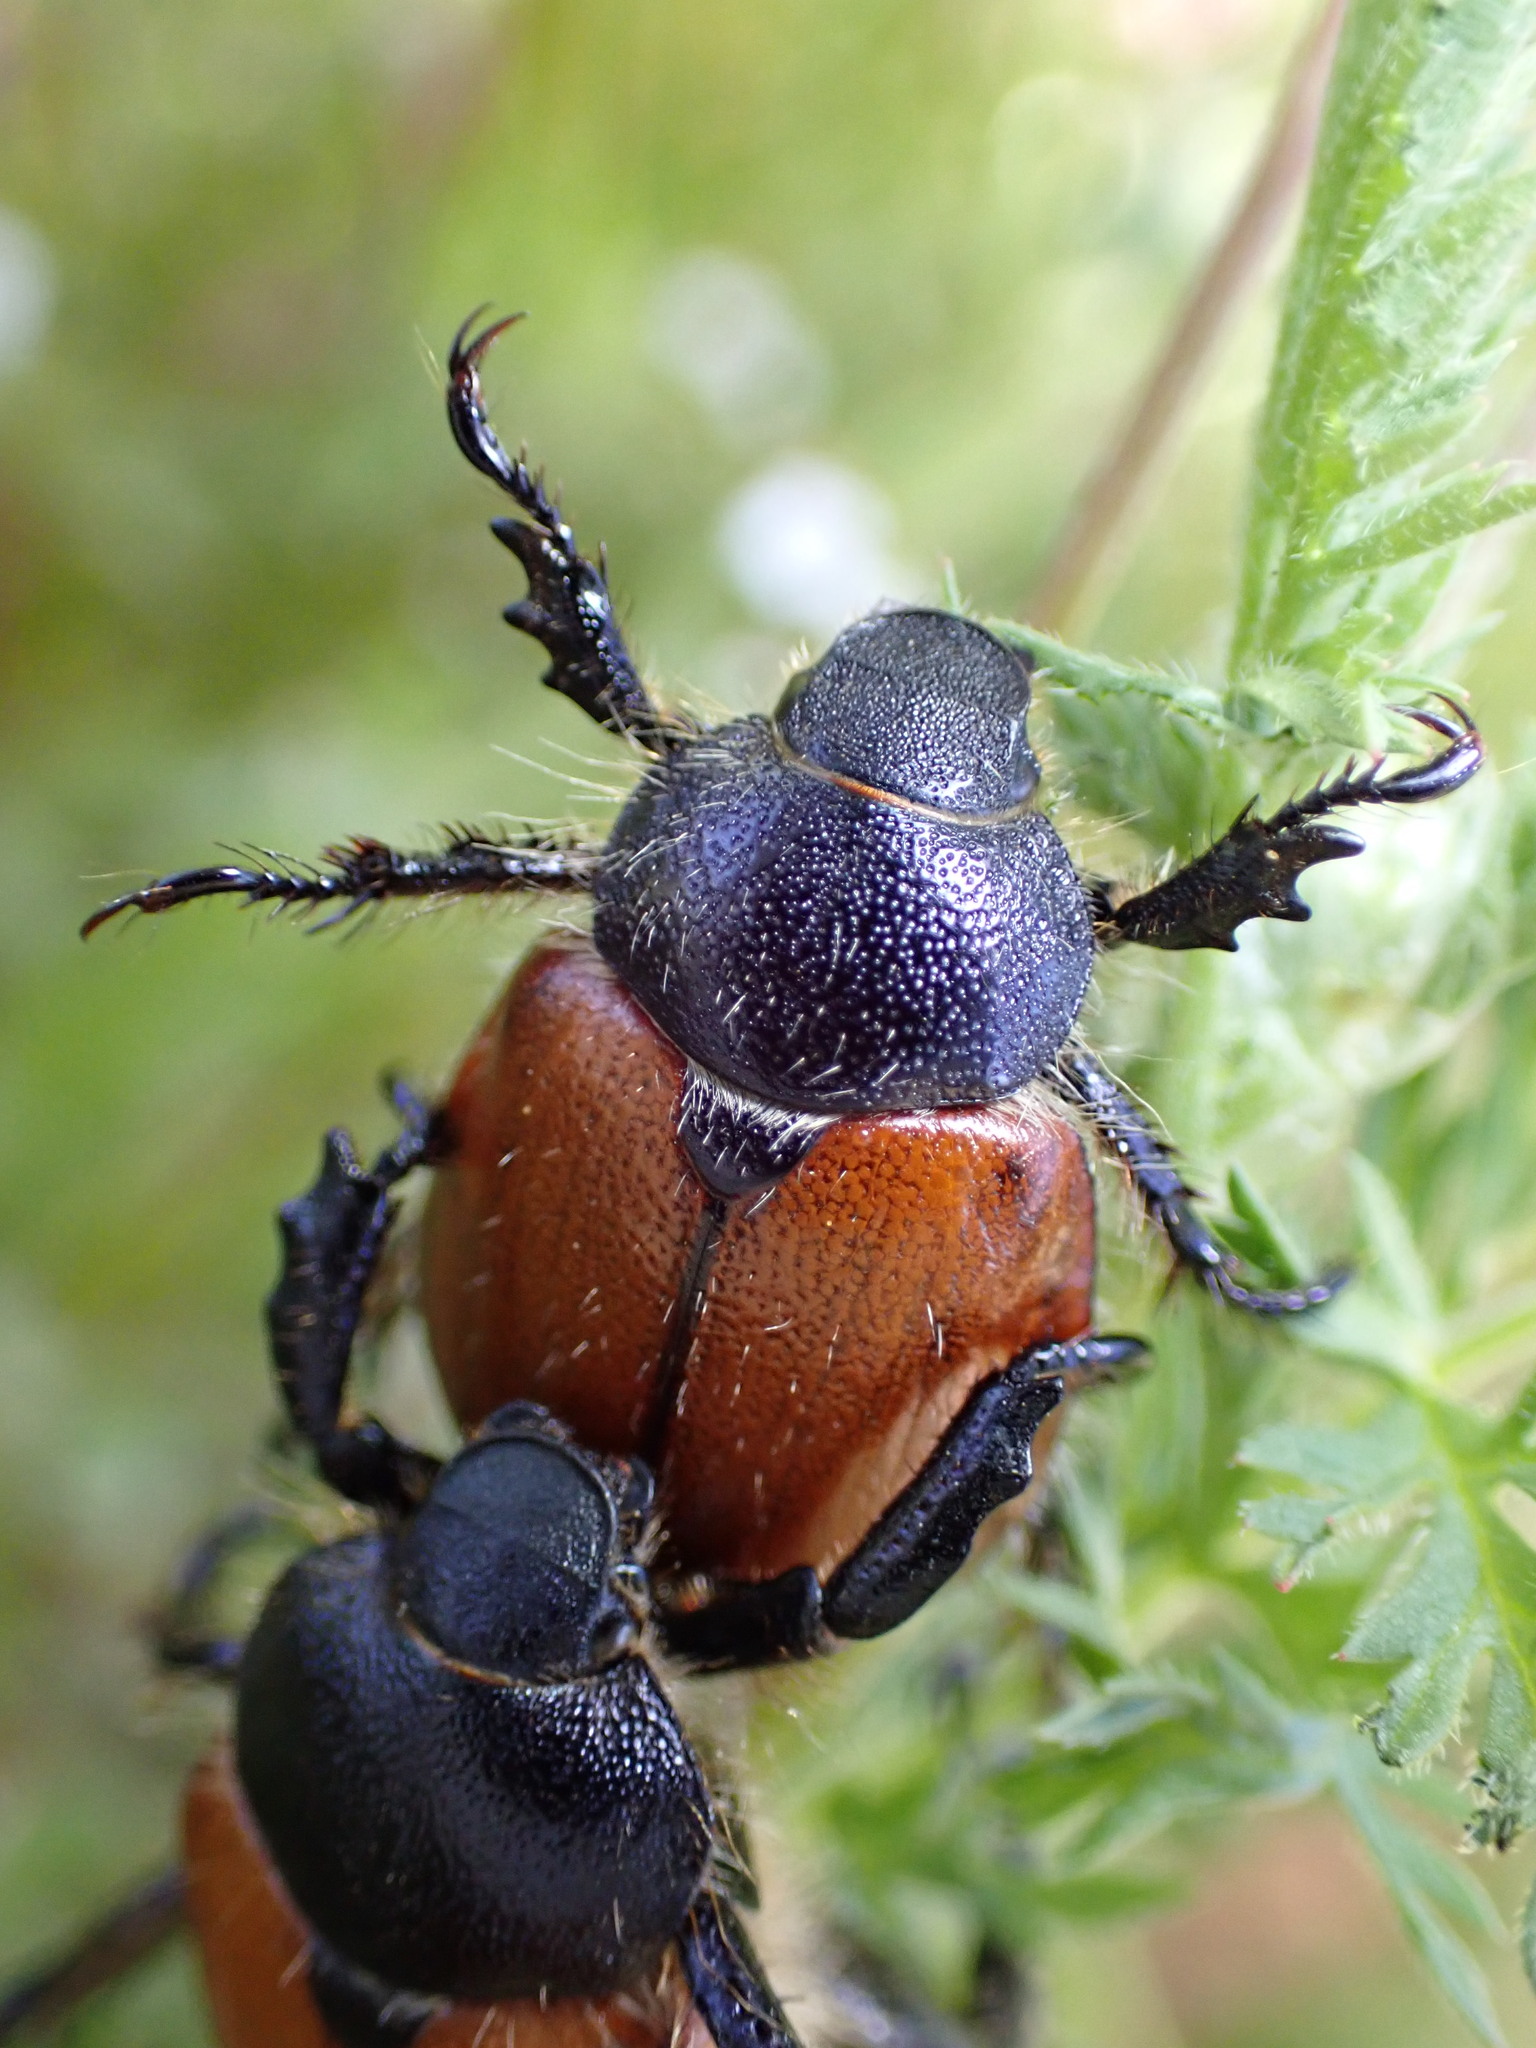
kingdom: Animalia
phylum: Arthropoda
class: Insecta
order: Coleoptera
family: Scarabaeidae
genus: Paracotalpa
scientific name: Paracotalpa ursina
